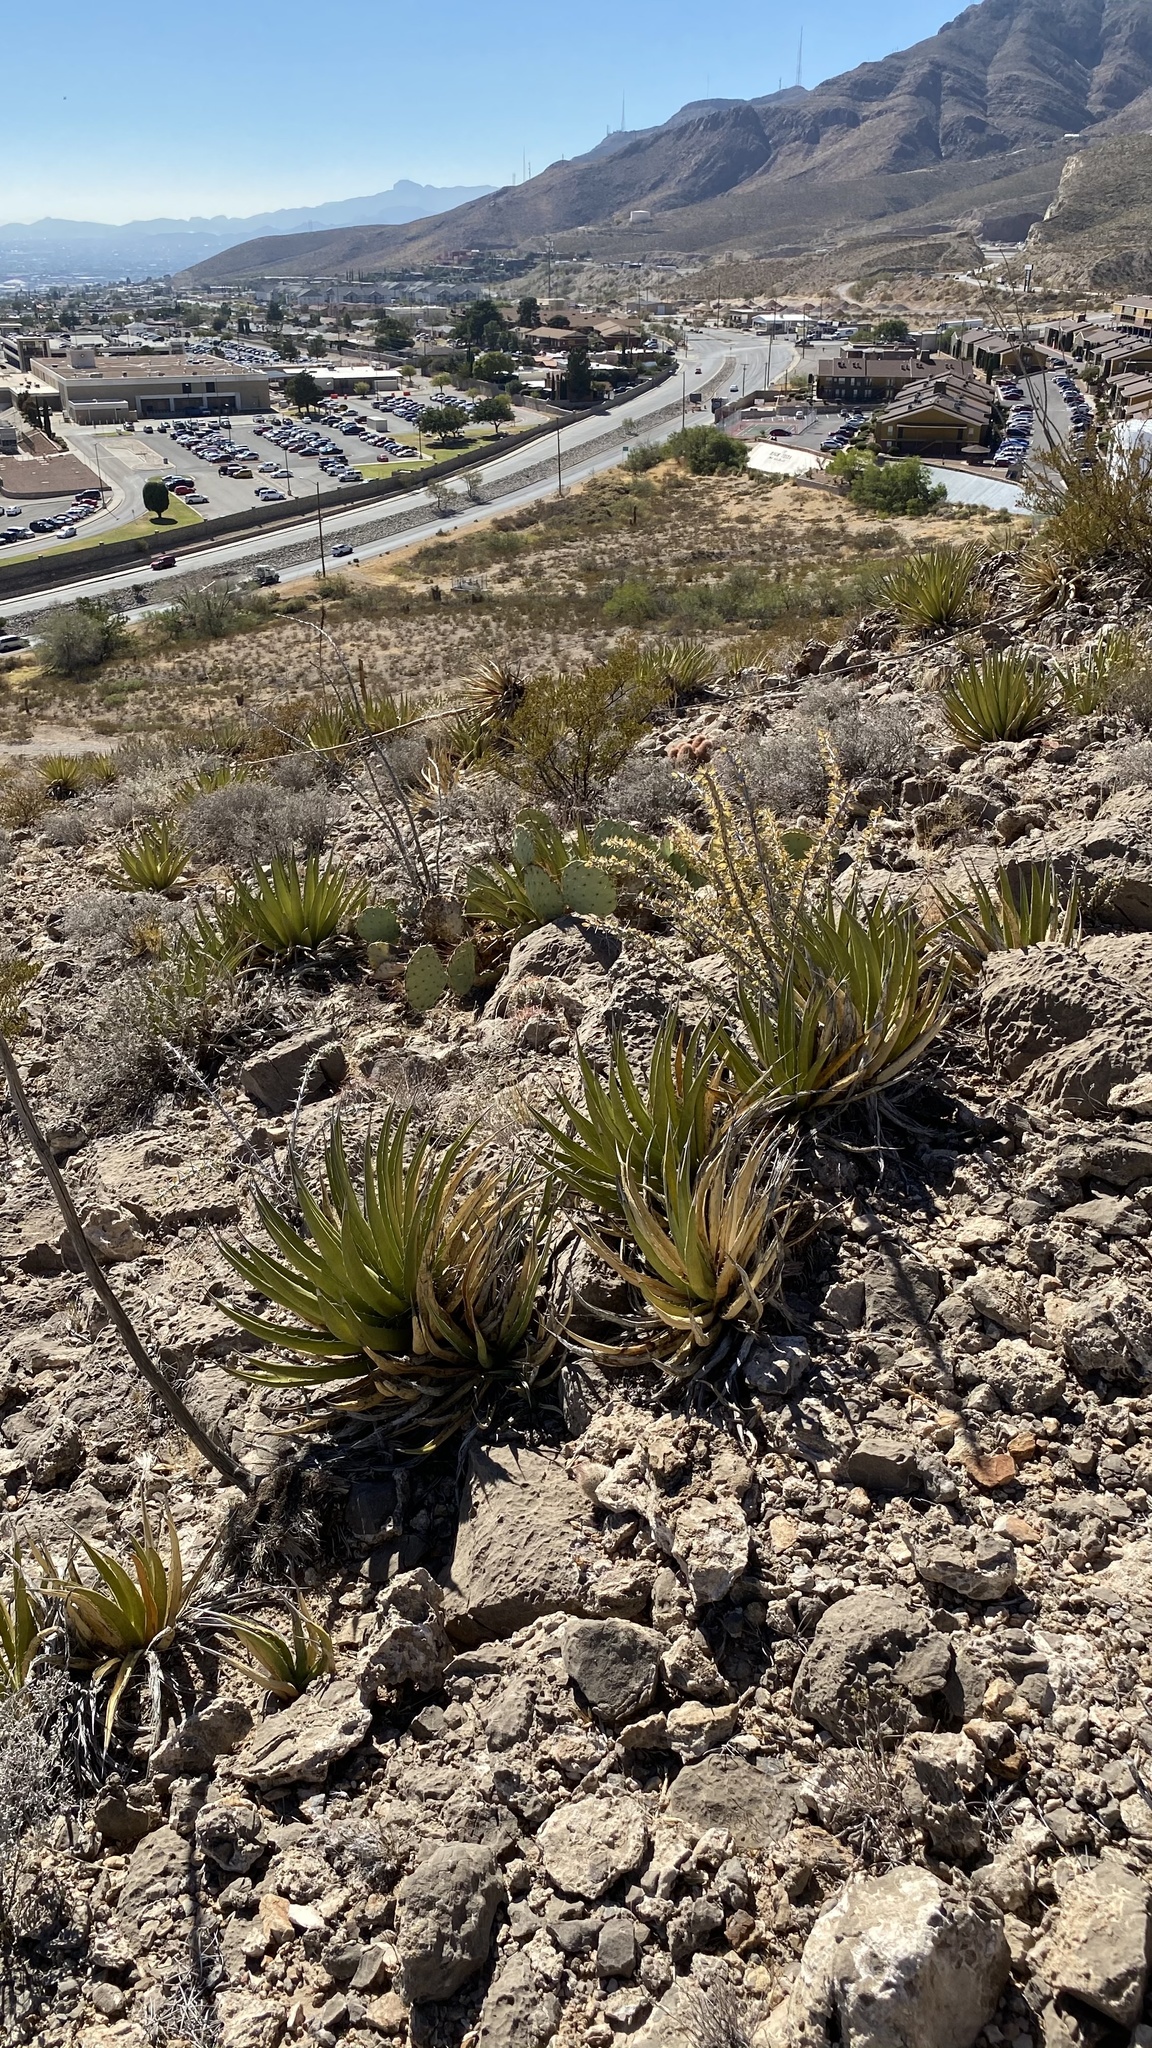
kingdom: Plantae
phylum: Tracheophyta
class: Liliopsida
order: Asparagales
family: Asparagaceae
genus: Agave
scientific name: Agave lechuguilla
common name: Lecheguilla agave
